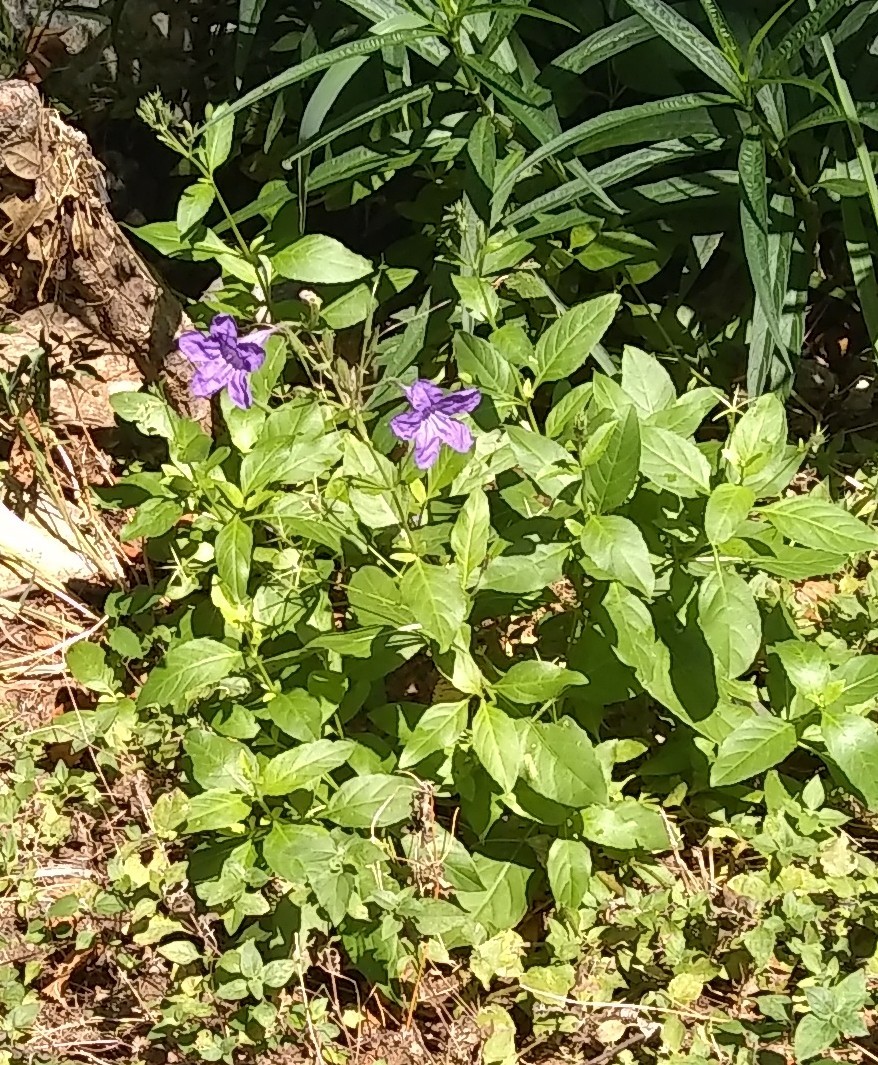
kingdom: Plantae
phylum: Tracheophyta
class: Magnoliopsida
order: Lamiales
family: Acanthaceae
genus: Ruellia
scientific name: Ruellia ciliatiflora
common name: Hairyflower wild petunia
